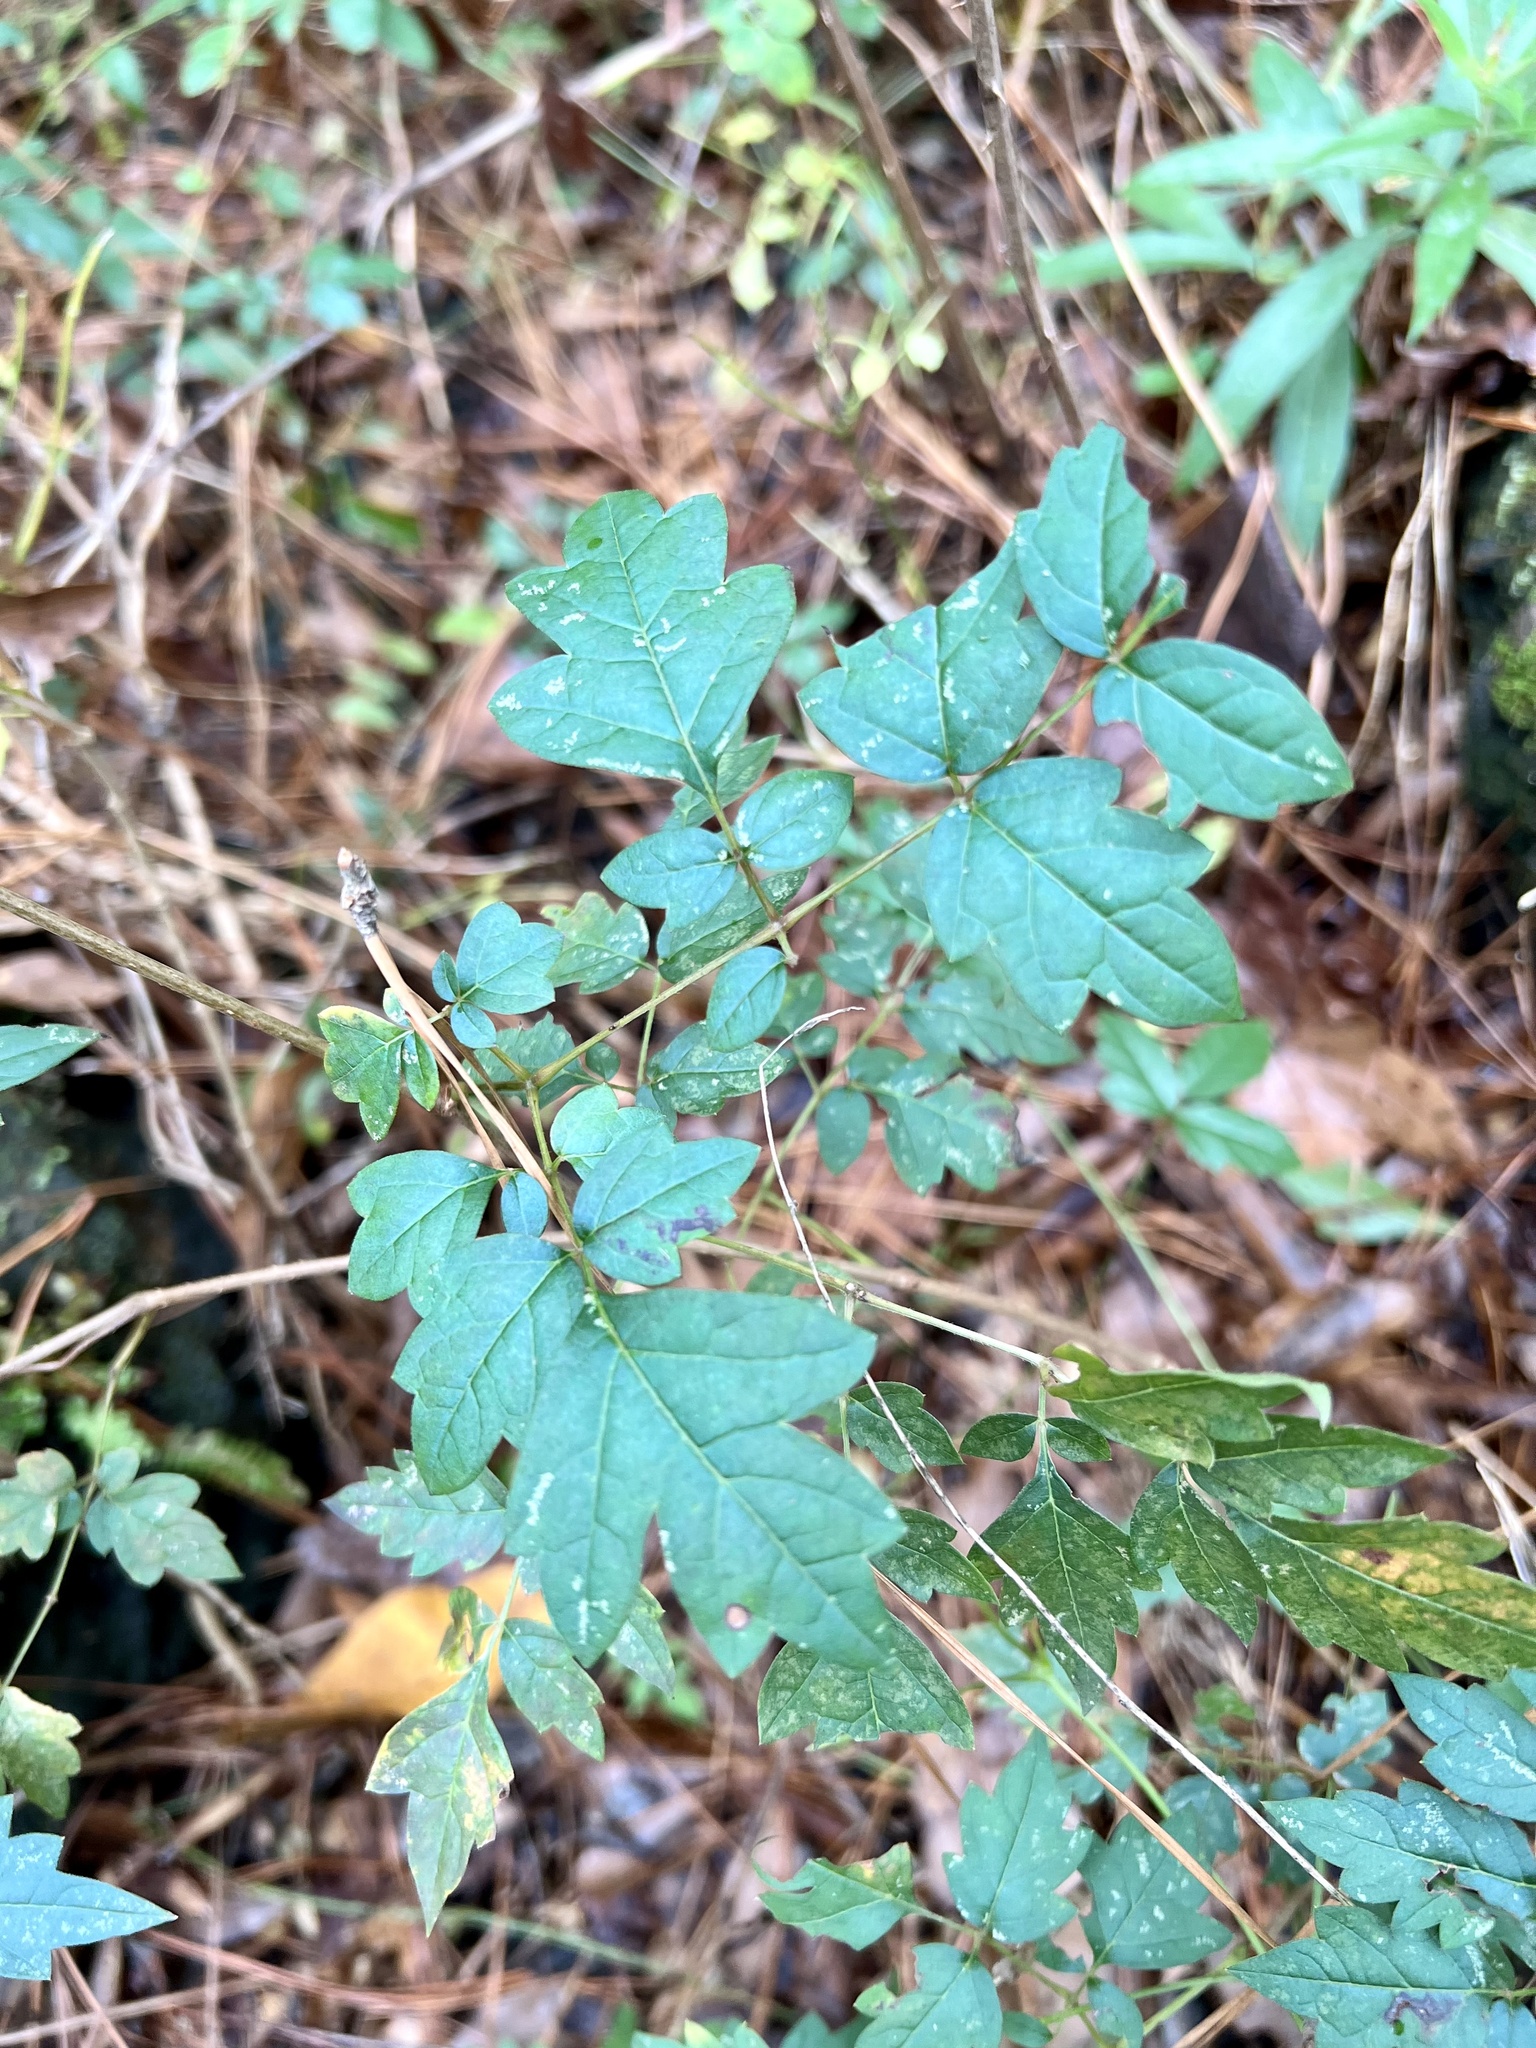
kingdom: Plantae
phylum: Tracheophyta
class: Magnoliopsida
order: Vitales
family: Vitaceae
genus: Nekemias
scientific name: Nekemias arborea
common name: Peppervine
